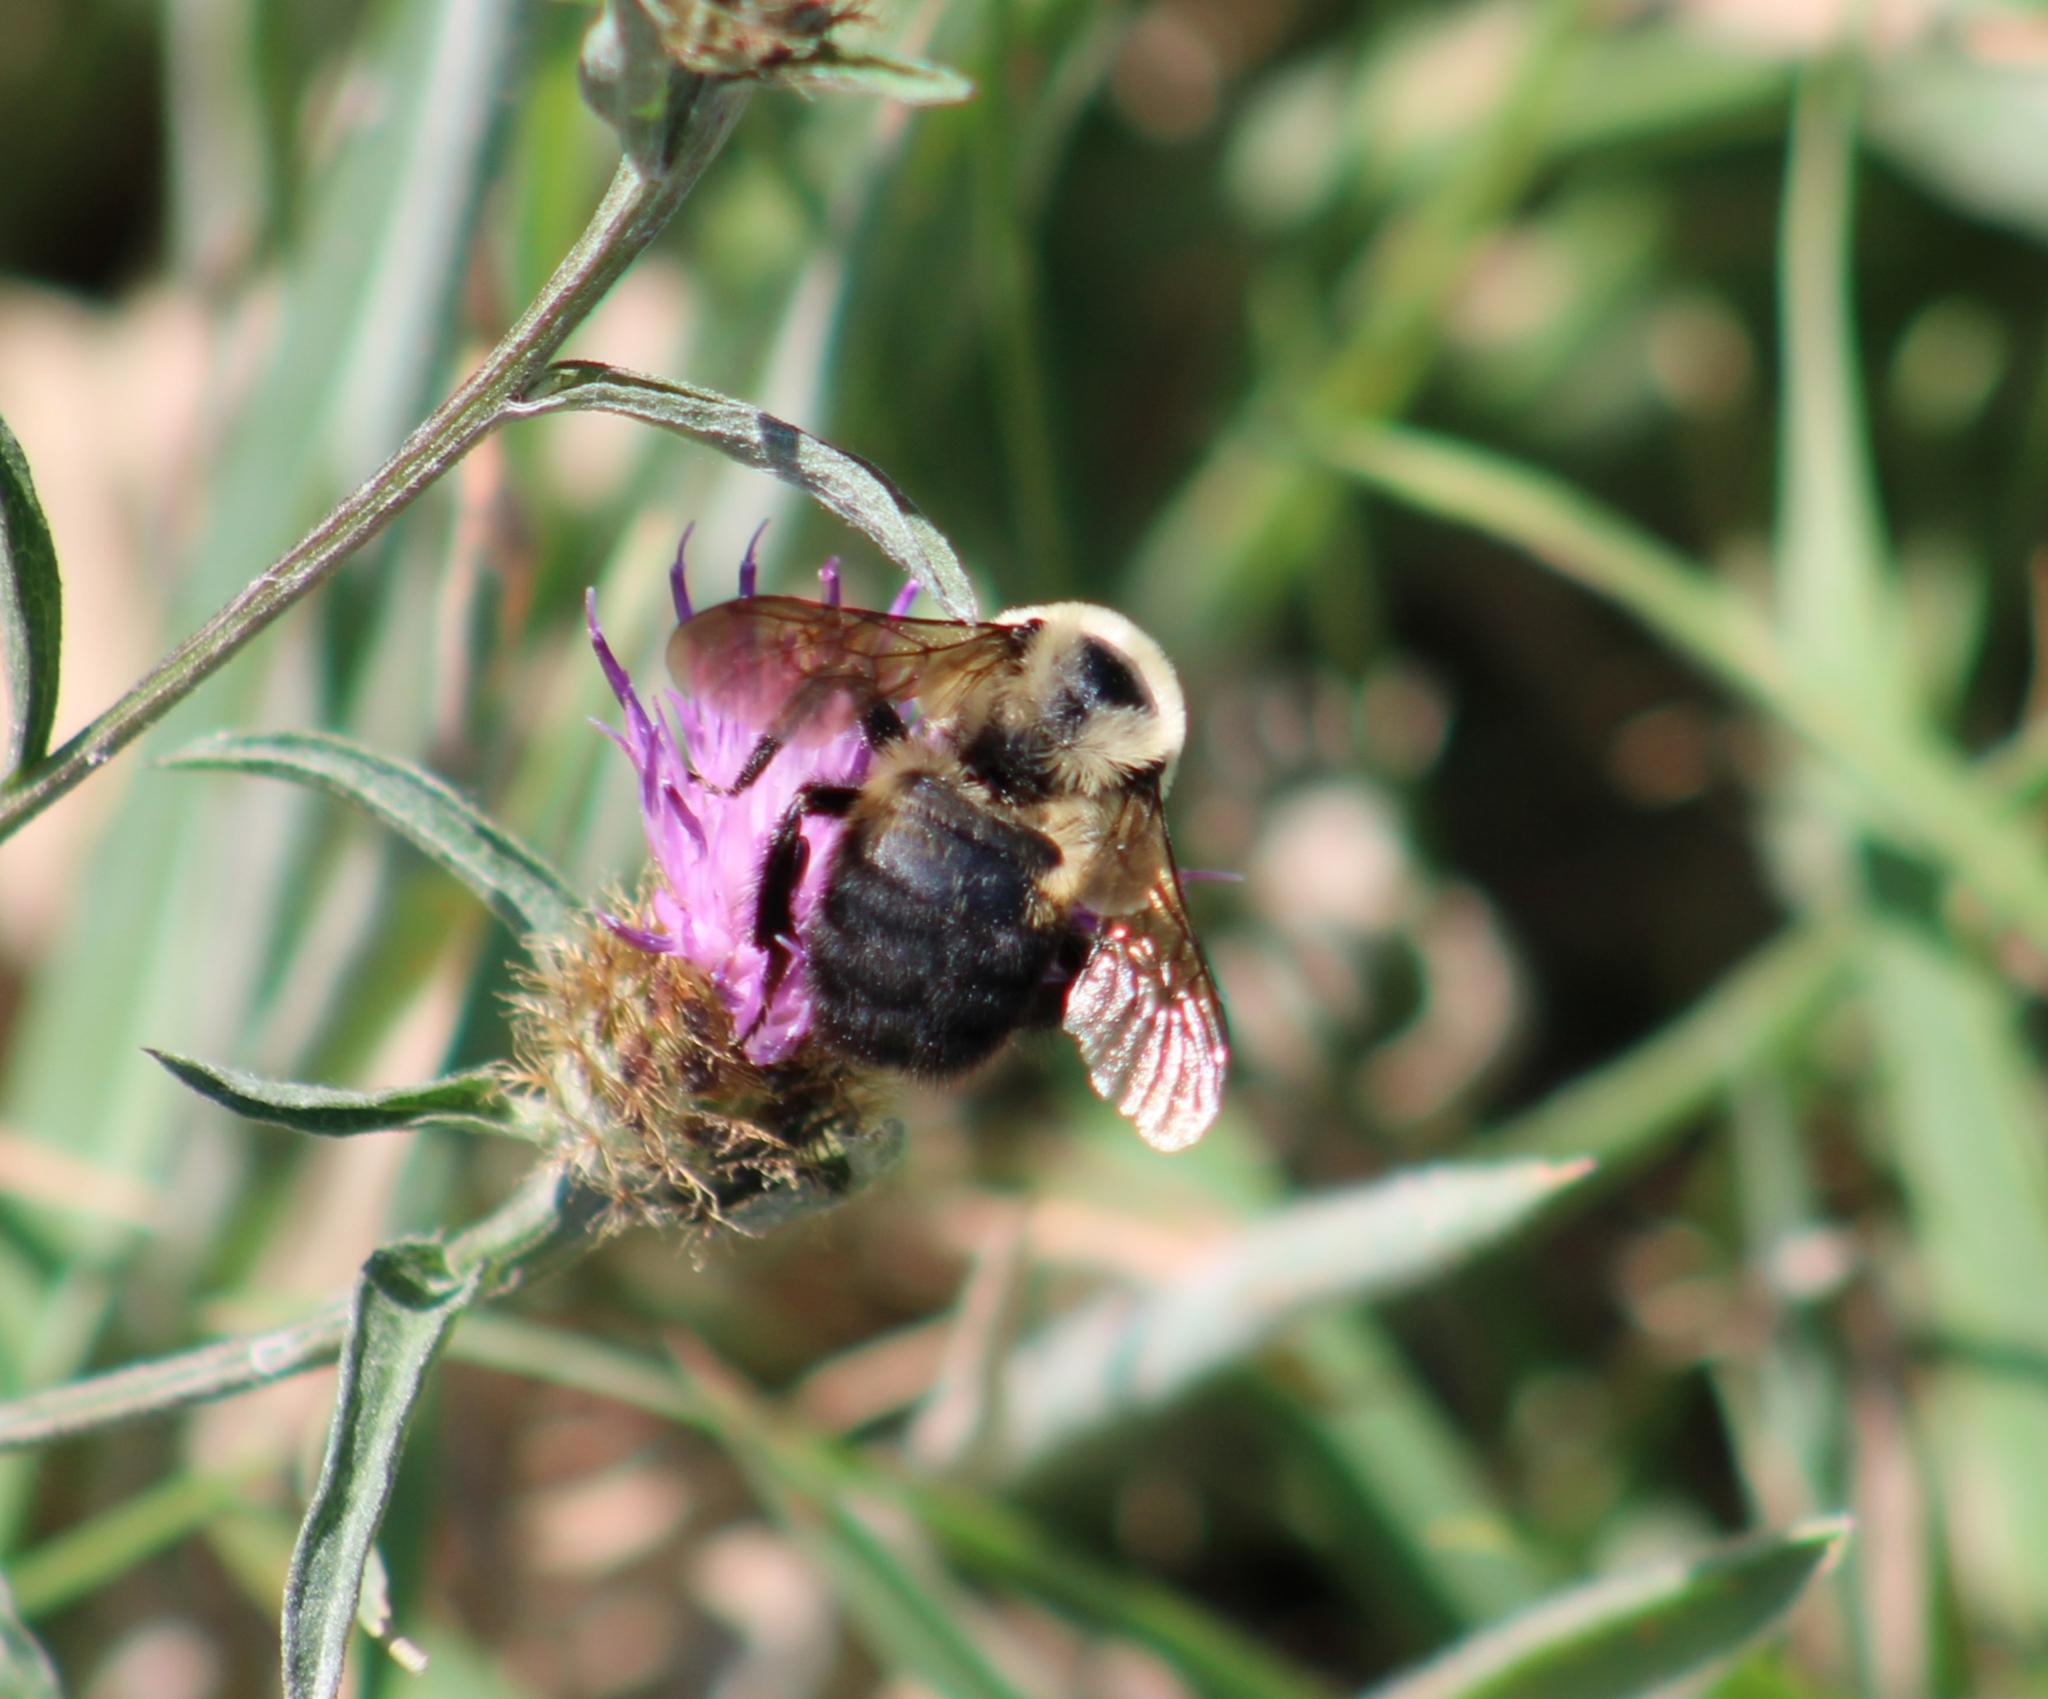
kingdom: Animalia
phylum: Arthropoda
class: Insecta
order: Hymenoptera
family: Apidae
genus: Bombus
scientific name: Bombus griseocollis
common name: Brown-belted bumble bee
